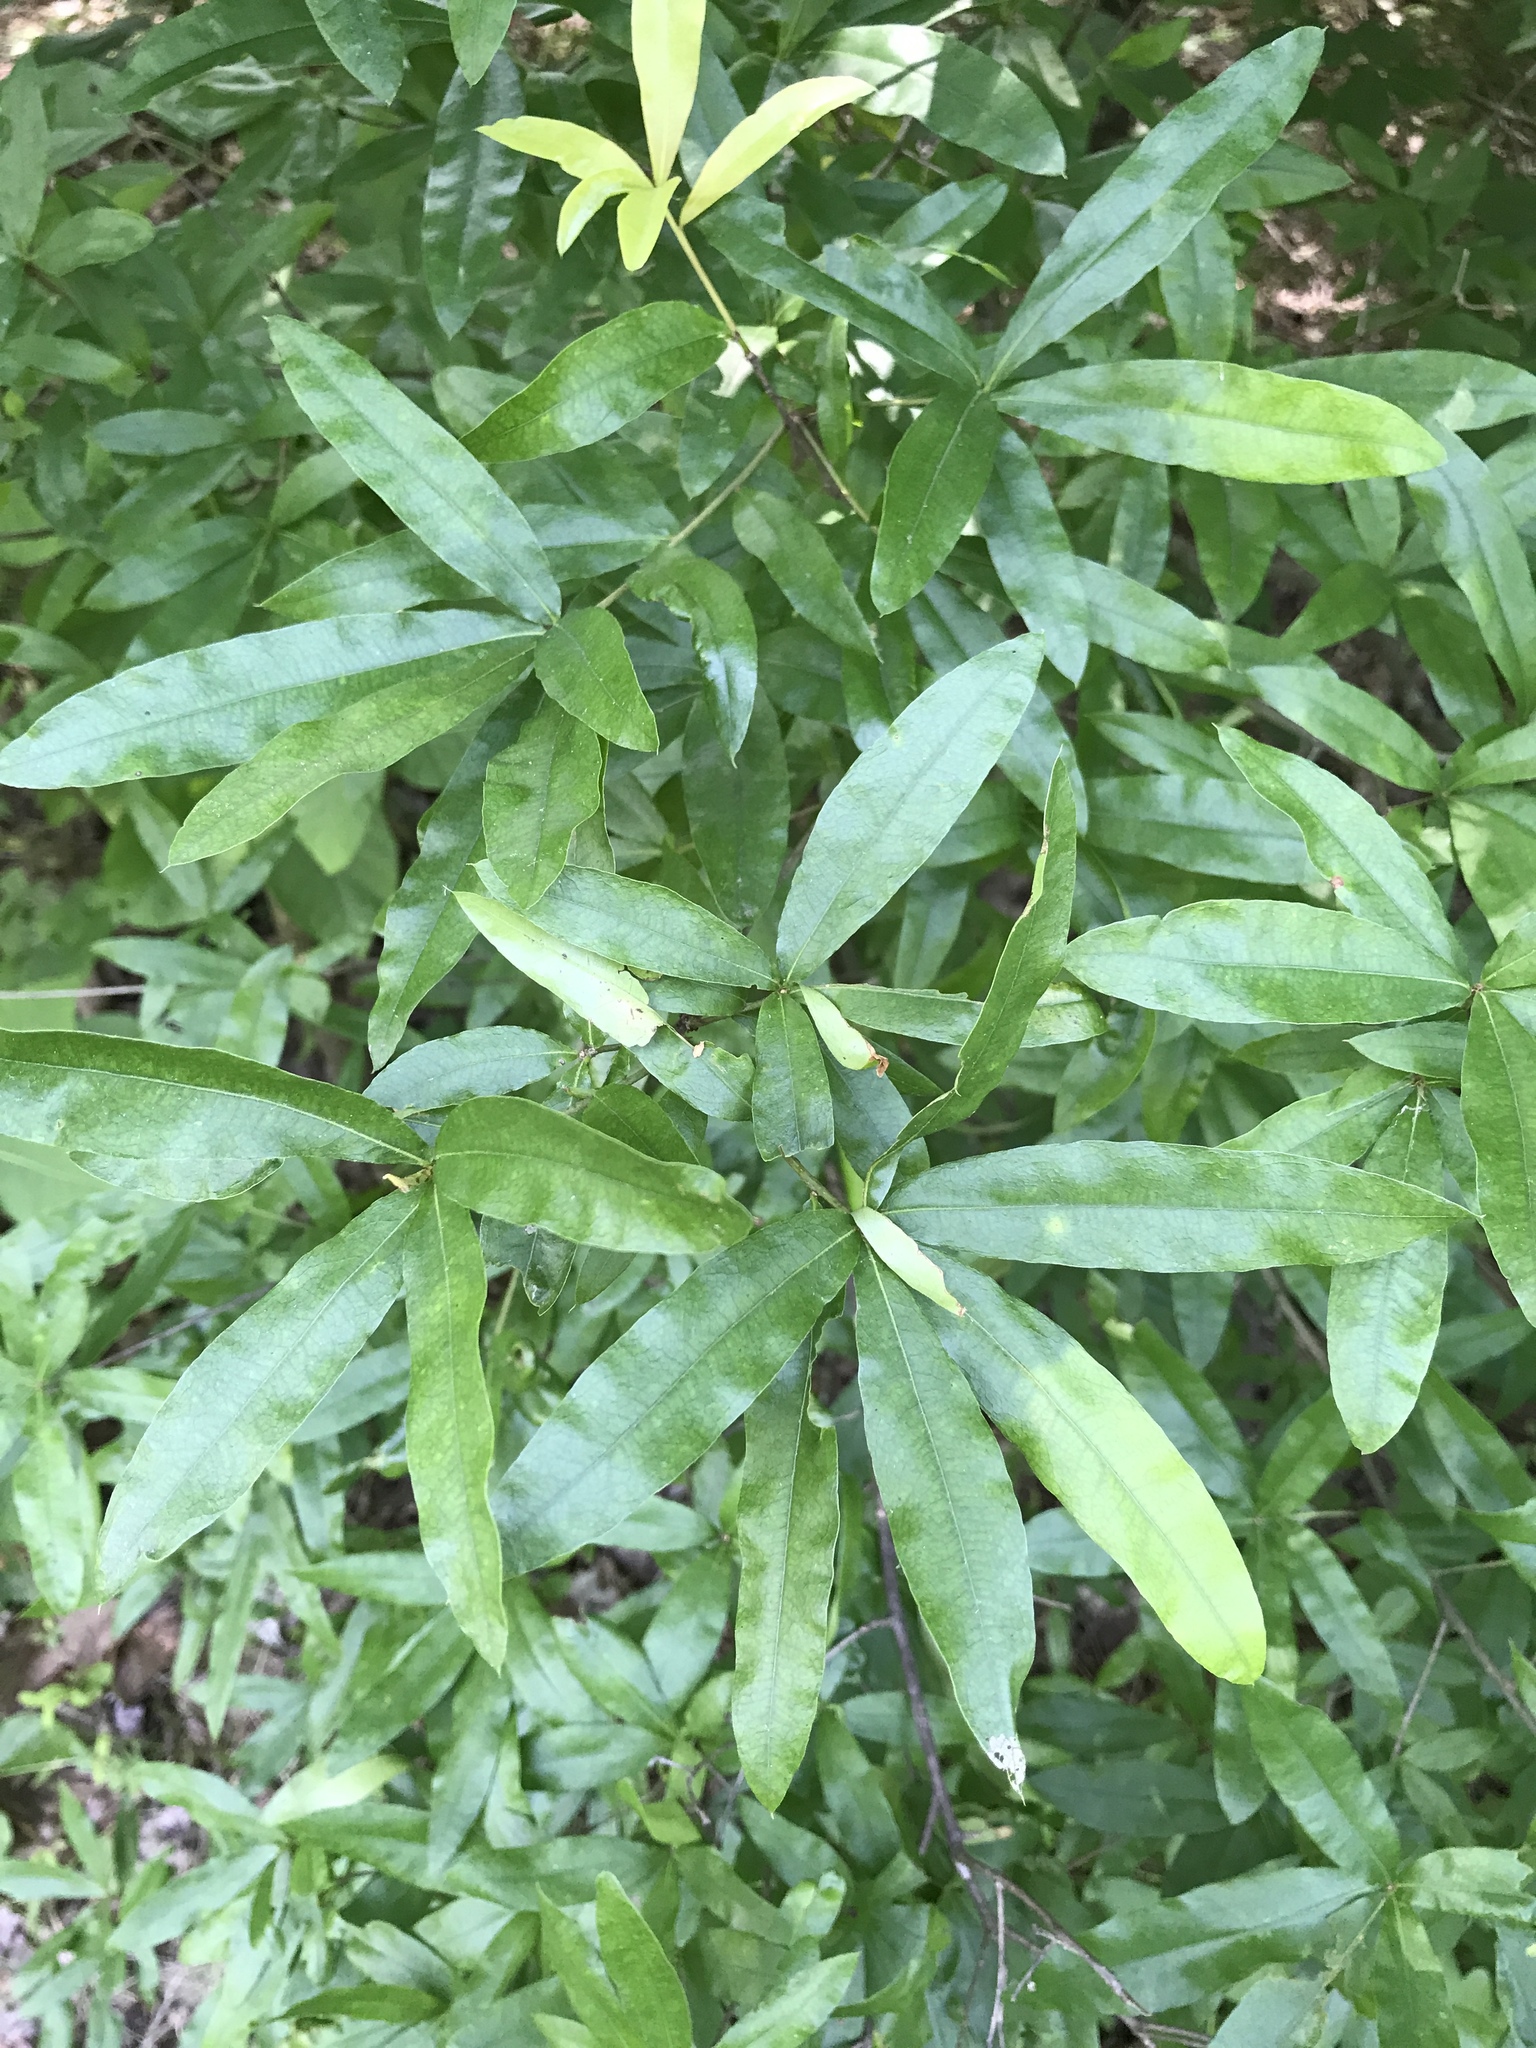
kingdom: Plantae
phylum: Tracheophyta
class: Magnoliopsida
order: Fagales
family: Fagaceae
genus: Quercus
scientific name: Quercus phellos
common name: Willow oak
